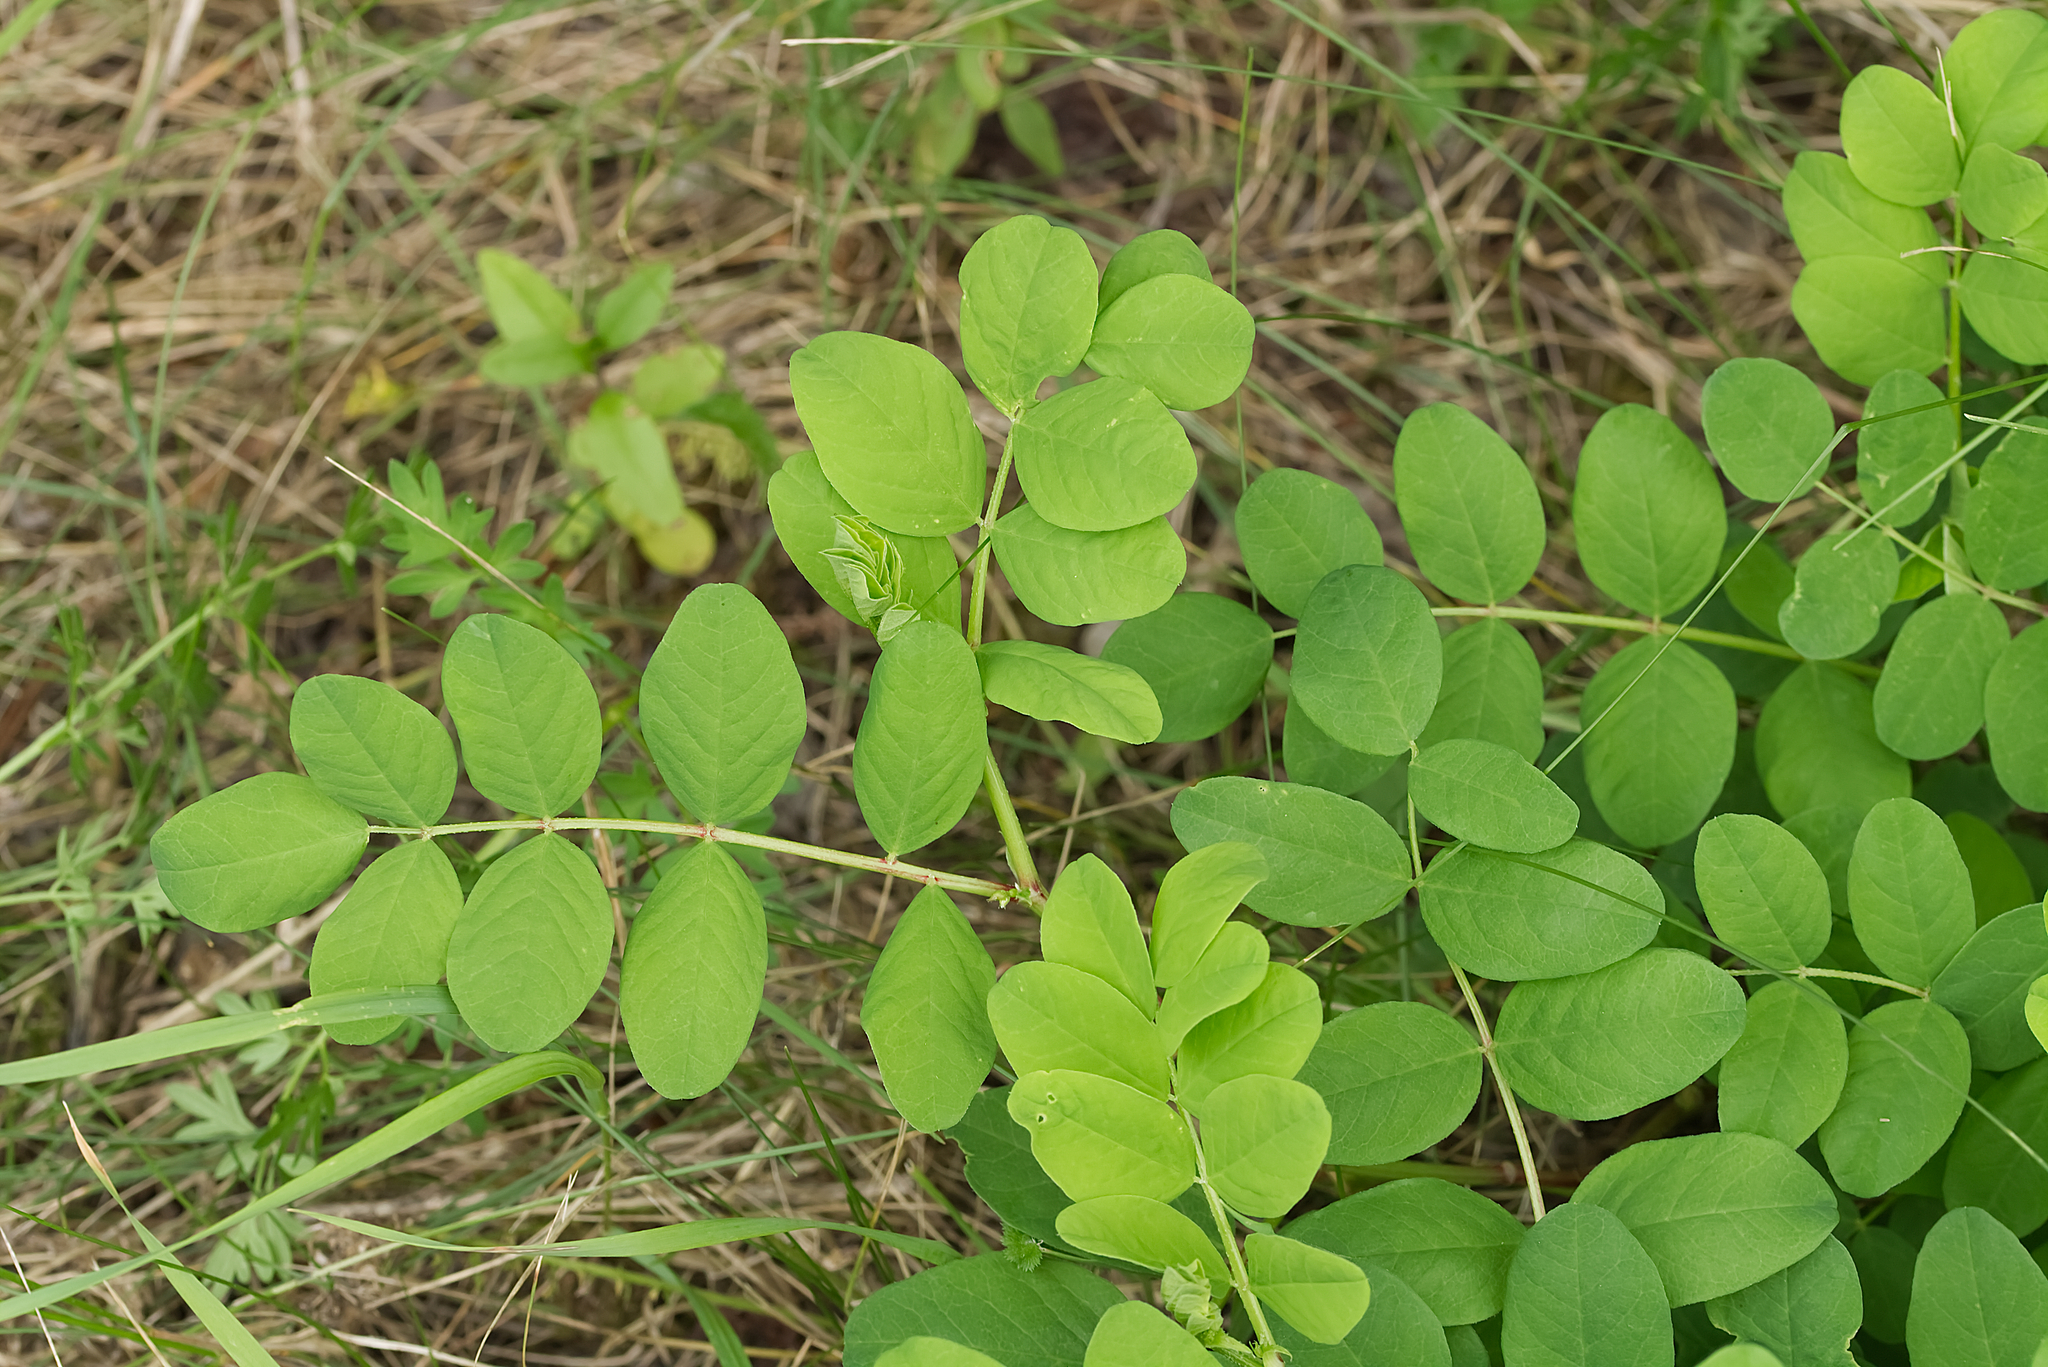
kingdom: Plantae
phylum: Tracheophyta
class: Magnoliopsida
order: Fabales
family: Fabaceae
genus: Astragalus
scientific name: Astragalus glycyphyllos
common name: Wild liquorice
